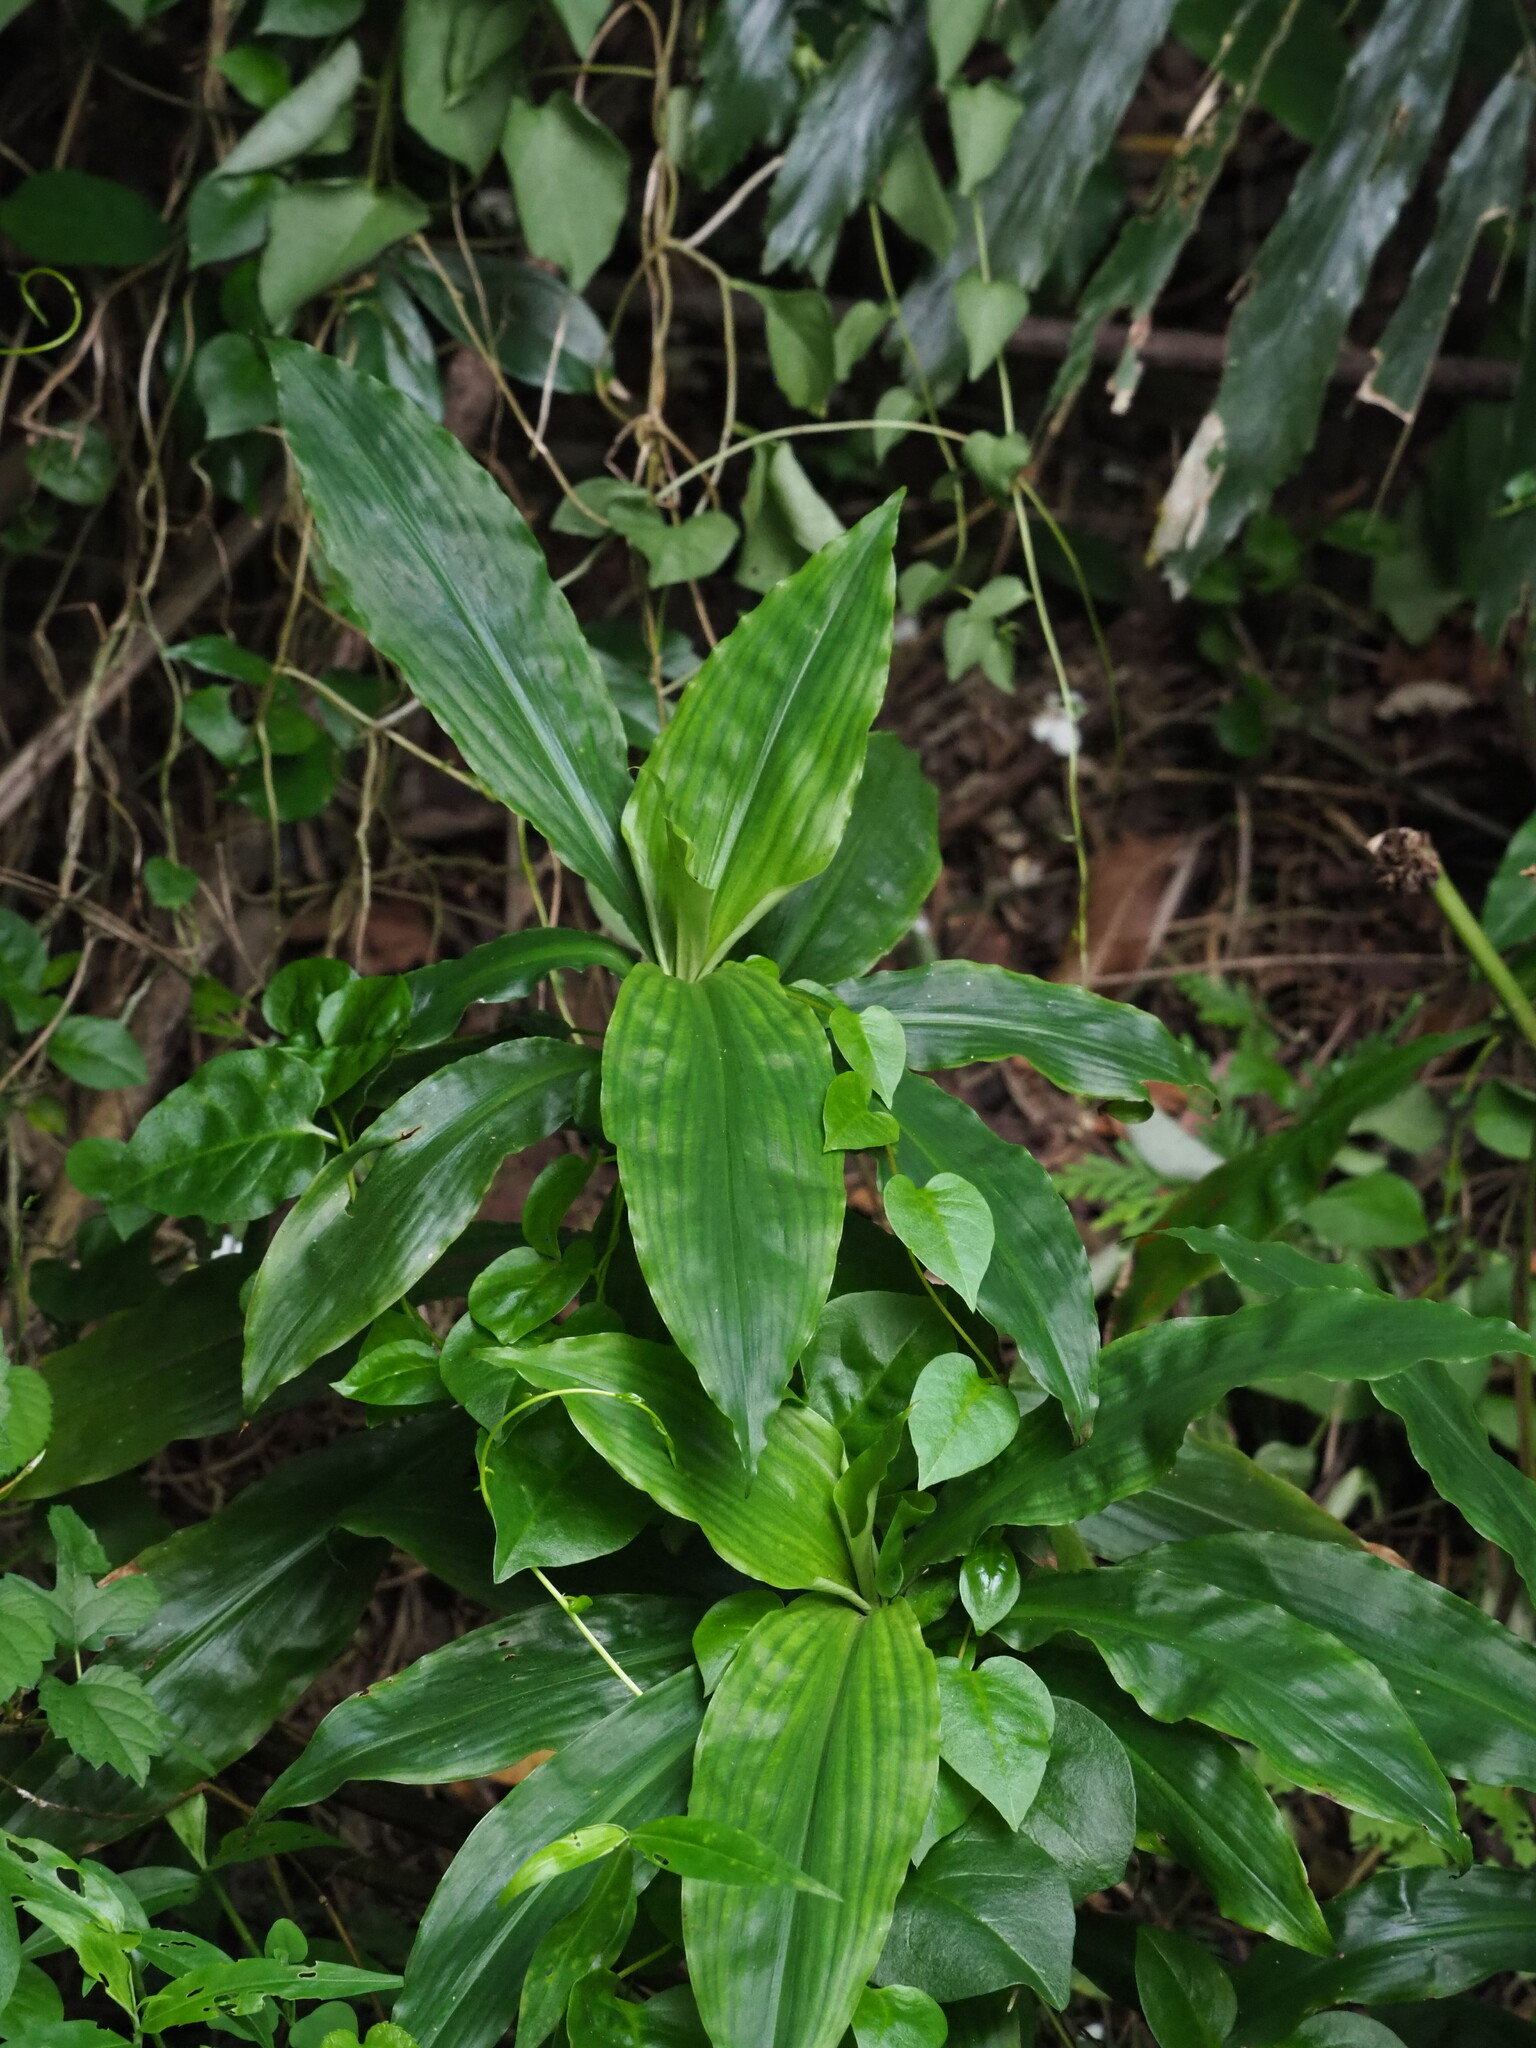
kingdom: Plantae
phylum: Tracheophyta
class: Liliopsida
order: Commelinales
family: Commelinaceae
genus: Amischotolype
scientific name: Amischotolype glabrata
